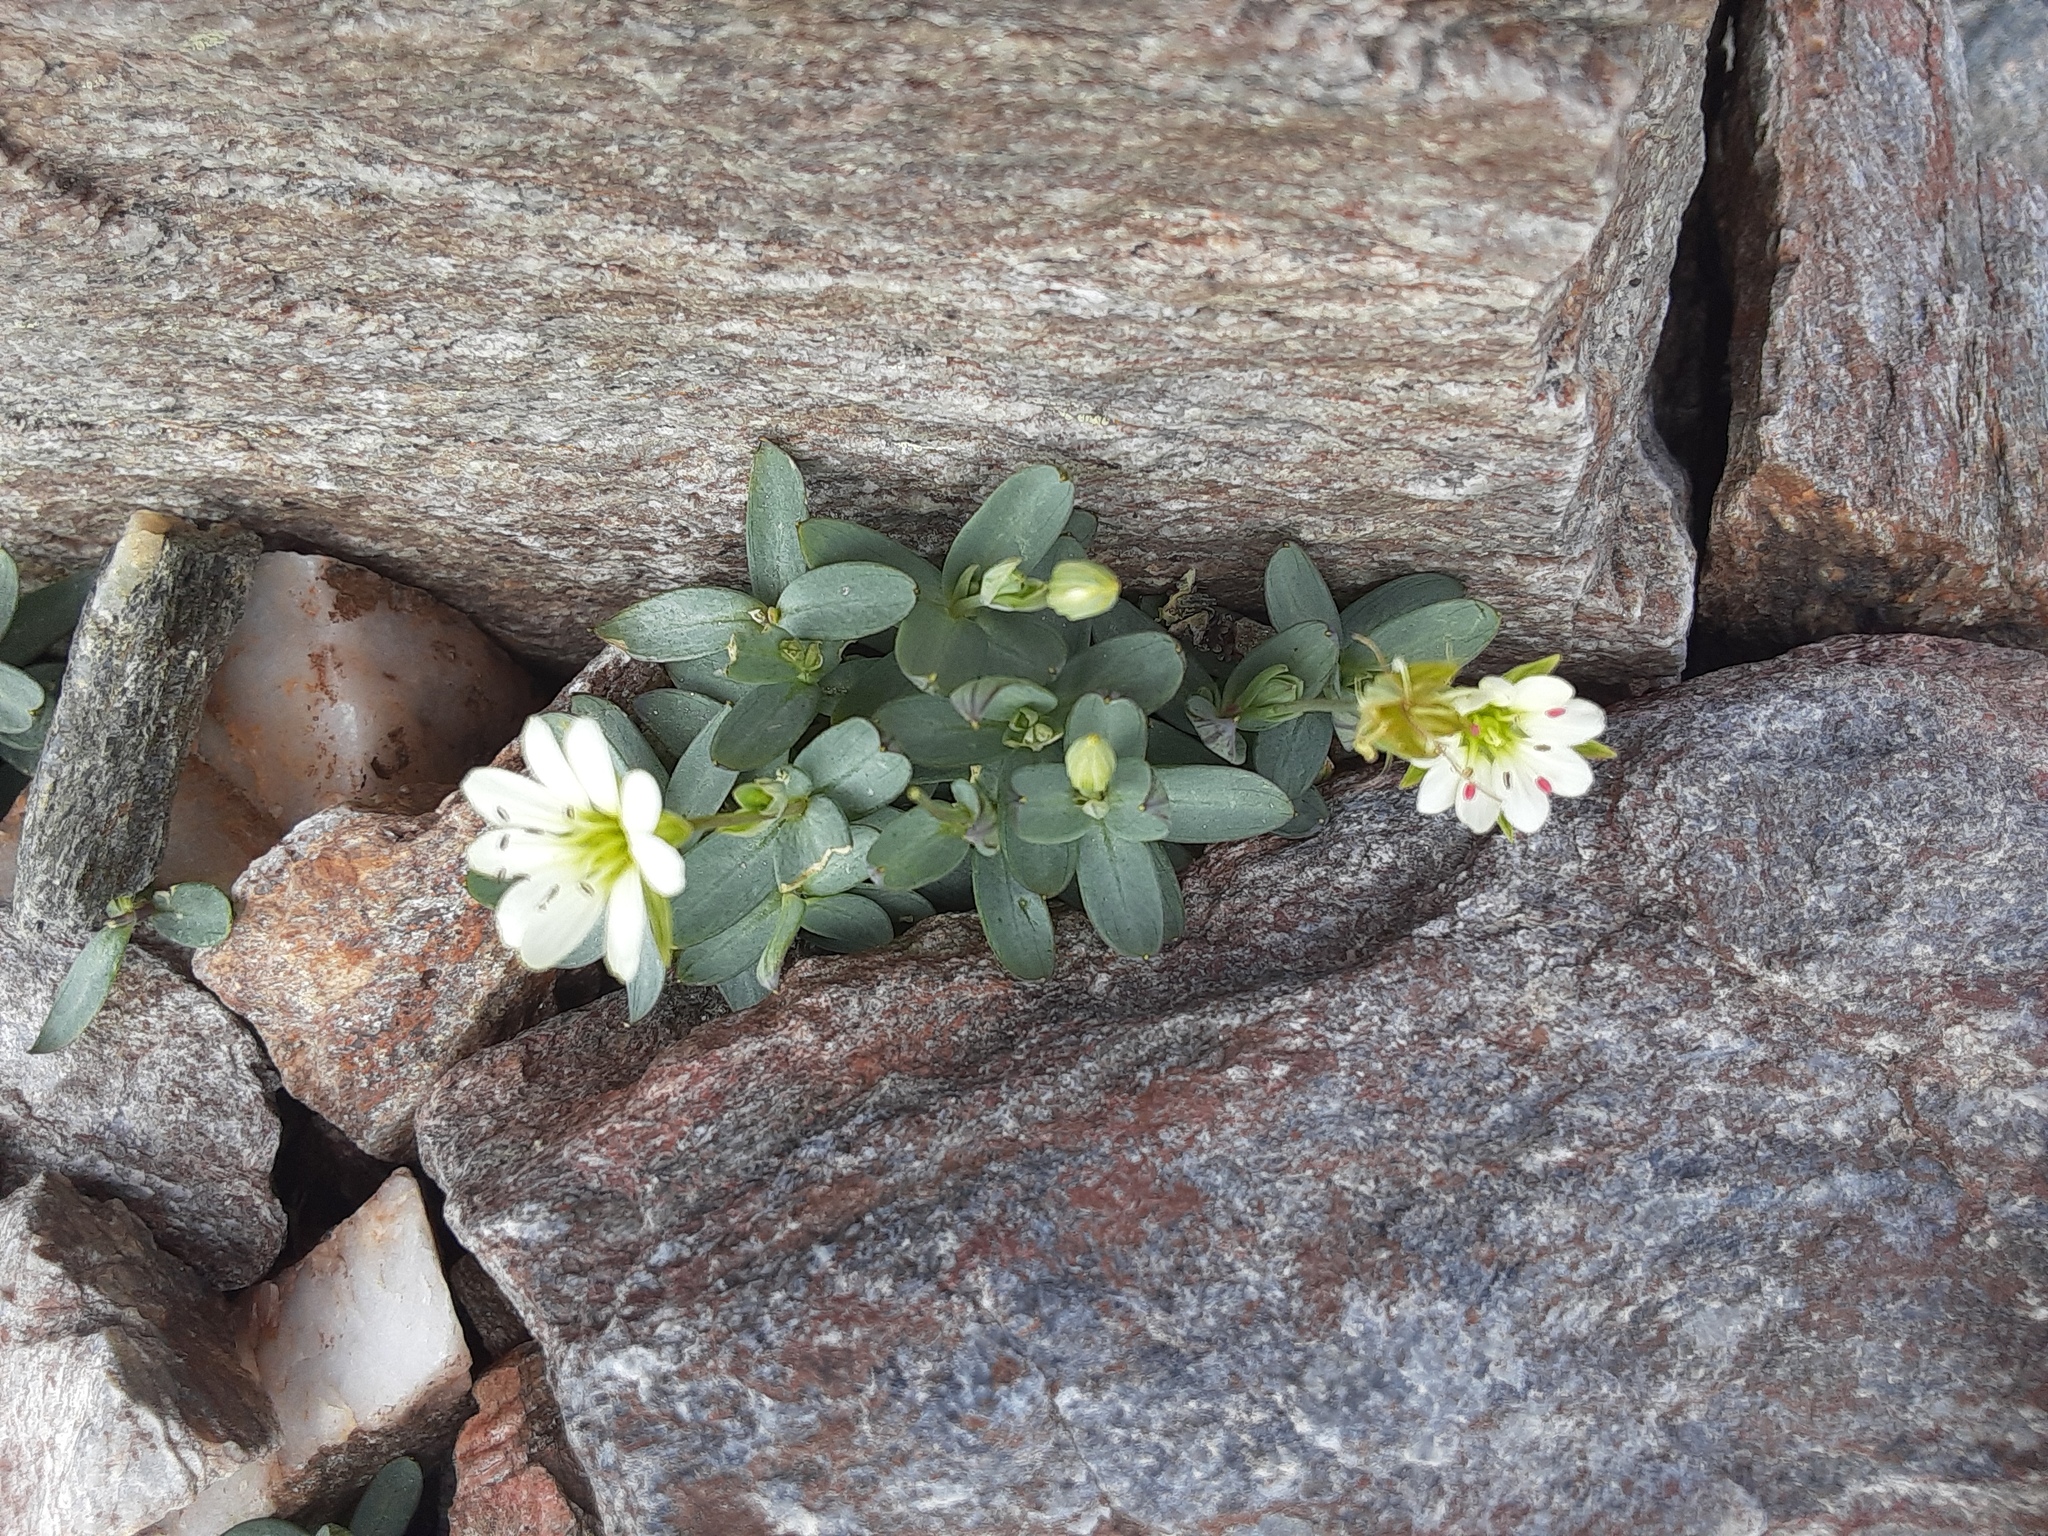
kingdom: Plantae
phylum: Tracheophyta
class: Magnoliopsida
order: Caryophyllales
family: Caryophyllaceae
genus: Stellaria
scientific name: Stellaria alaskana
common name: Alaska starwort
